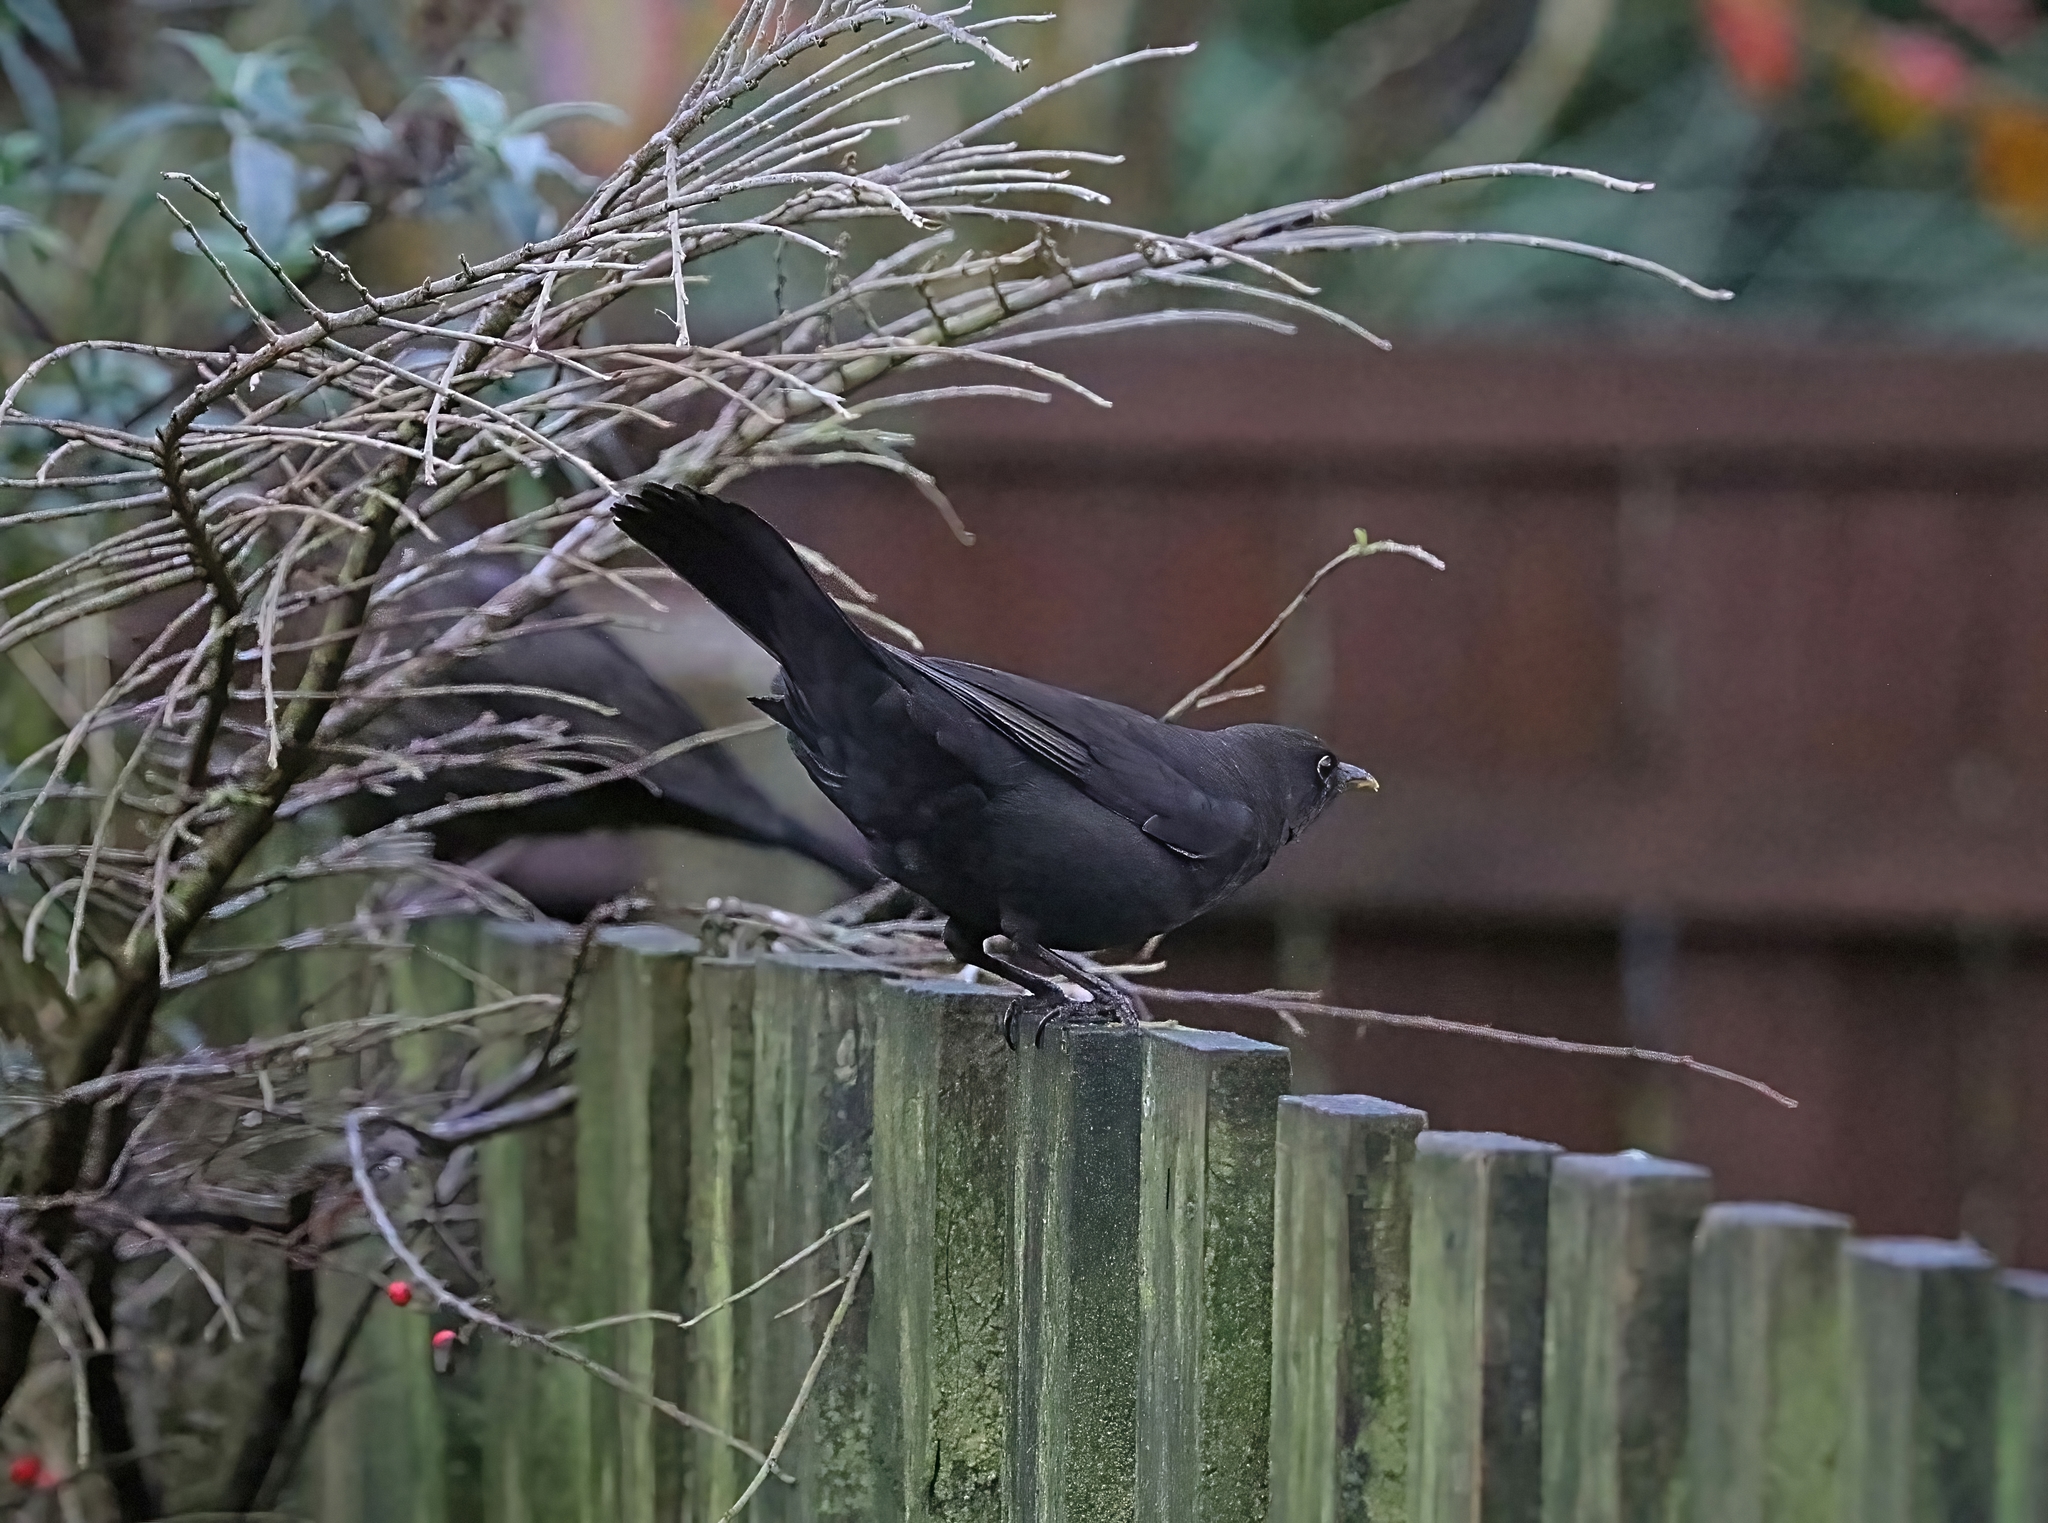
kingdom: Animalia
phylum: Chordata
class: Aves
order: Passeriformes
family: Turdidae
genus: Turdus
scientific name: Turdus merula
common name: Common blackbird
